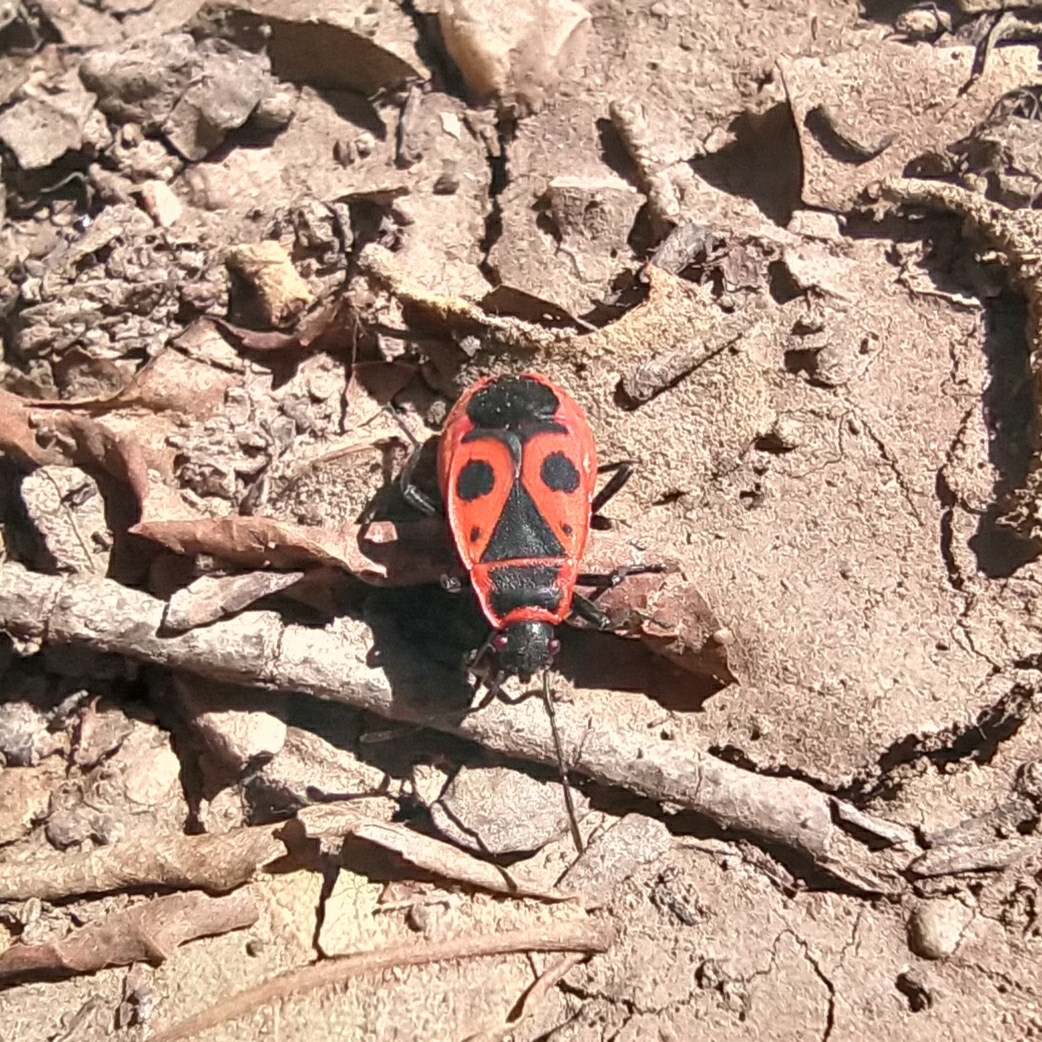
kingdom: Animalia
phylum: Arthropoda
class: Insecta
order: Hemiptera
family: Pyrrhocoridae
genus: Pyrrhocoris
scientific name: Pyrrhocoris apterus
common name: Firebug
